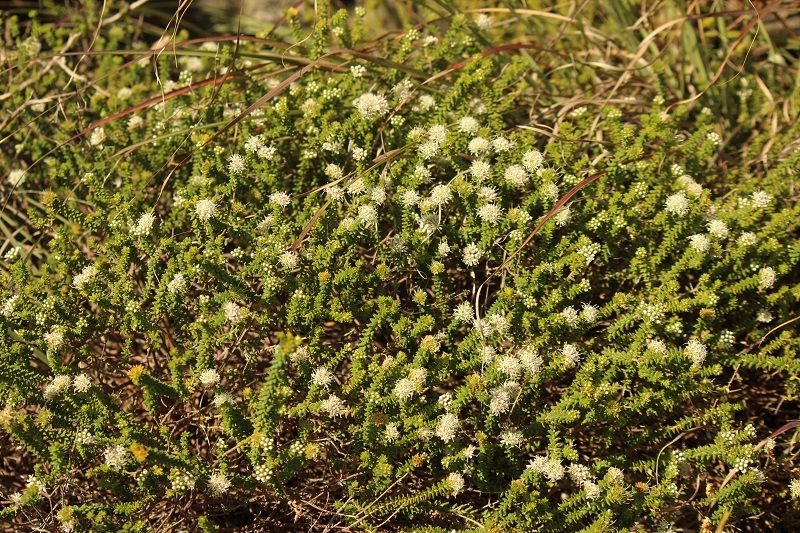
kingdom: Plantae
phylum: Tracheophyta
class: Magnoliopsida
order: Sapindales
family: Rutaceae
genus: Agathosma
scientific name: Agathosma apiculata
